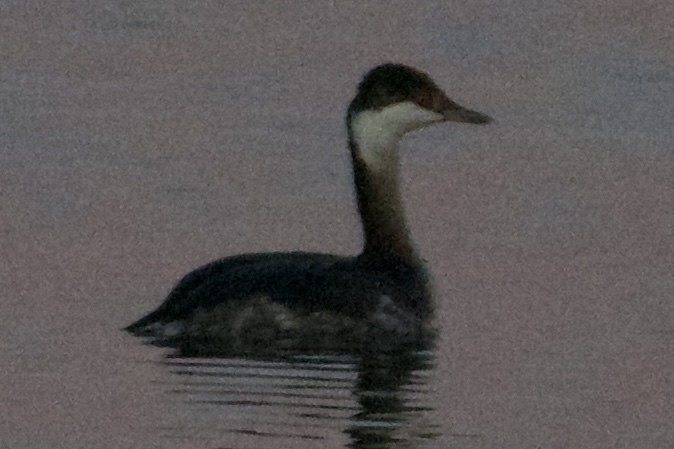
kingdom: Animalia
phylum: Chordata
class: Aves
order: Podicipediformes
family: Podicipedidae
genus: Podiceps
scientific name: Podiceps auritus
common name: Horned grebe
